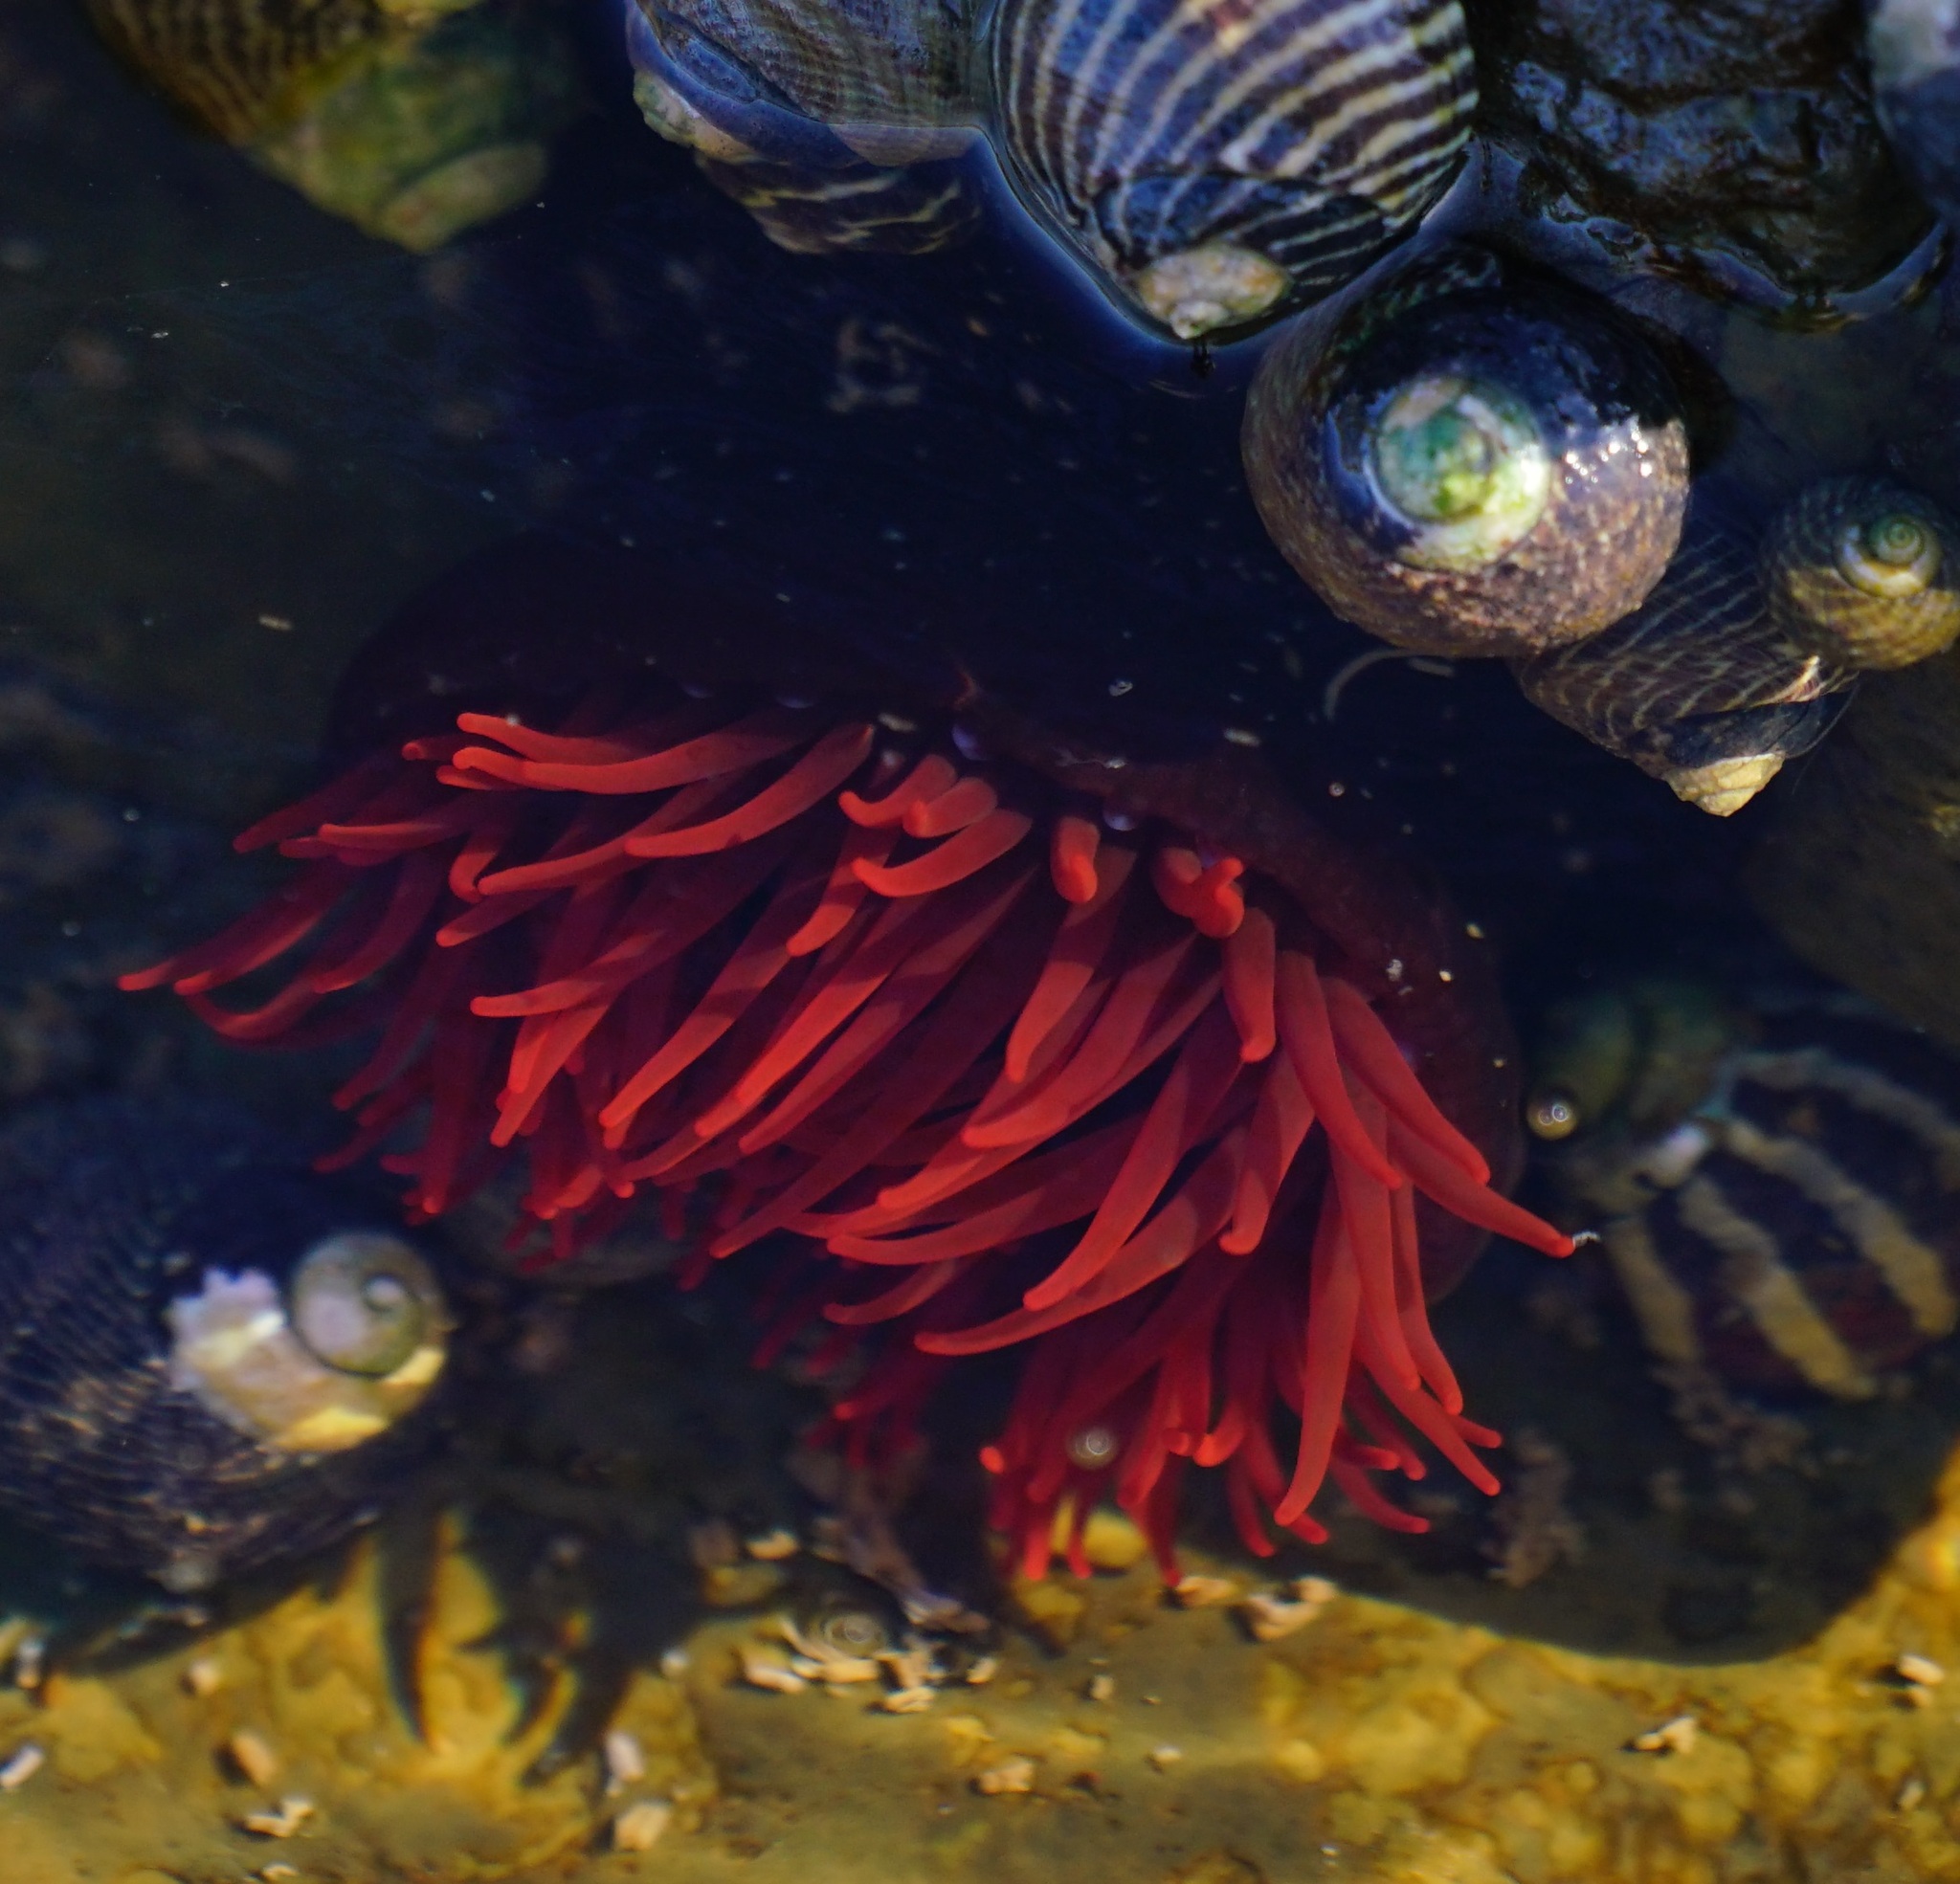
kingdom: Animalia
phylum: Cnidaria
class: Anthozoa
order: Actiniaria
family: Actiniidae
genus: Actinia
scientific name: Actinia tenebrosa
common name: Waratah anemone
